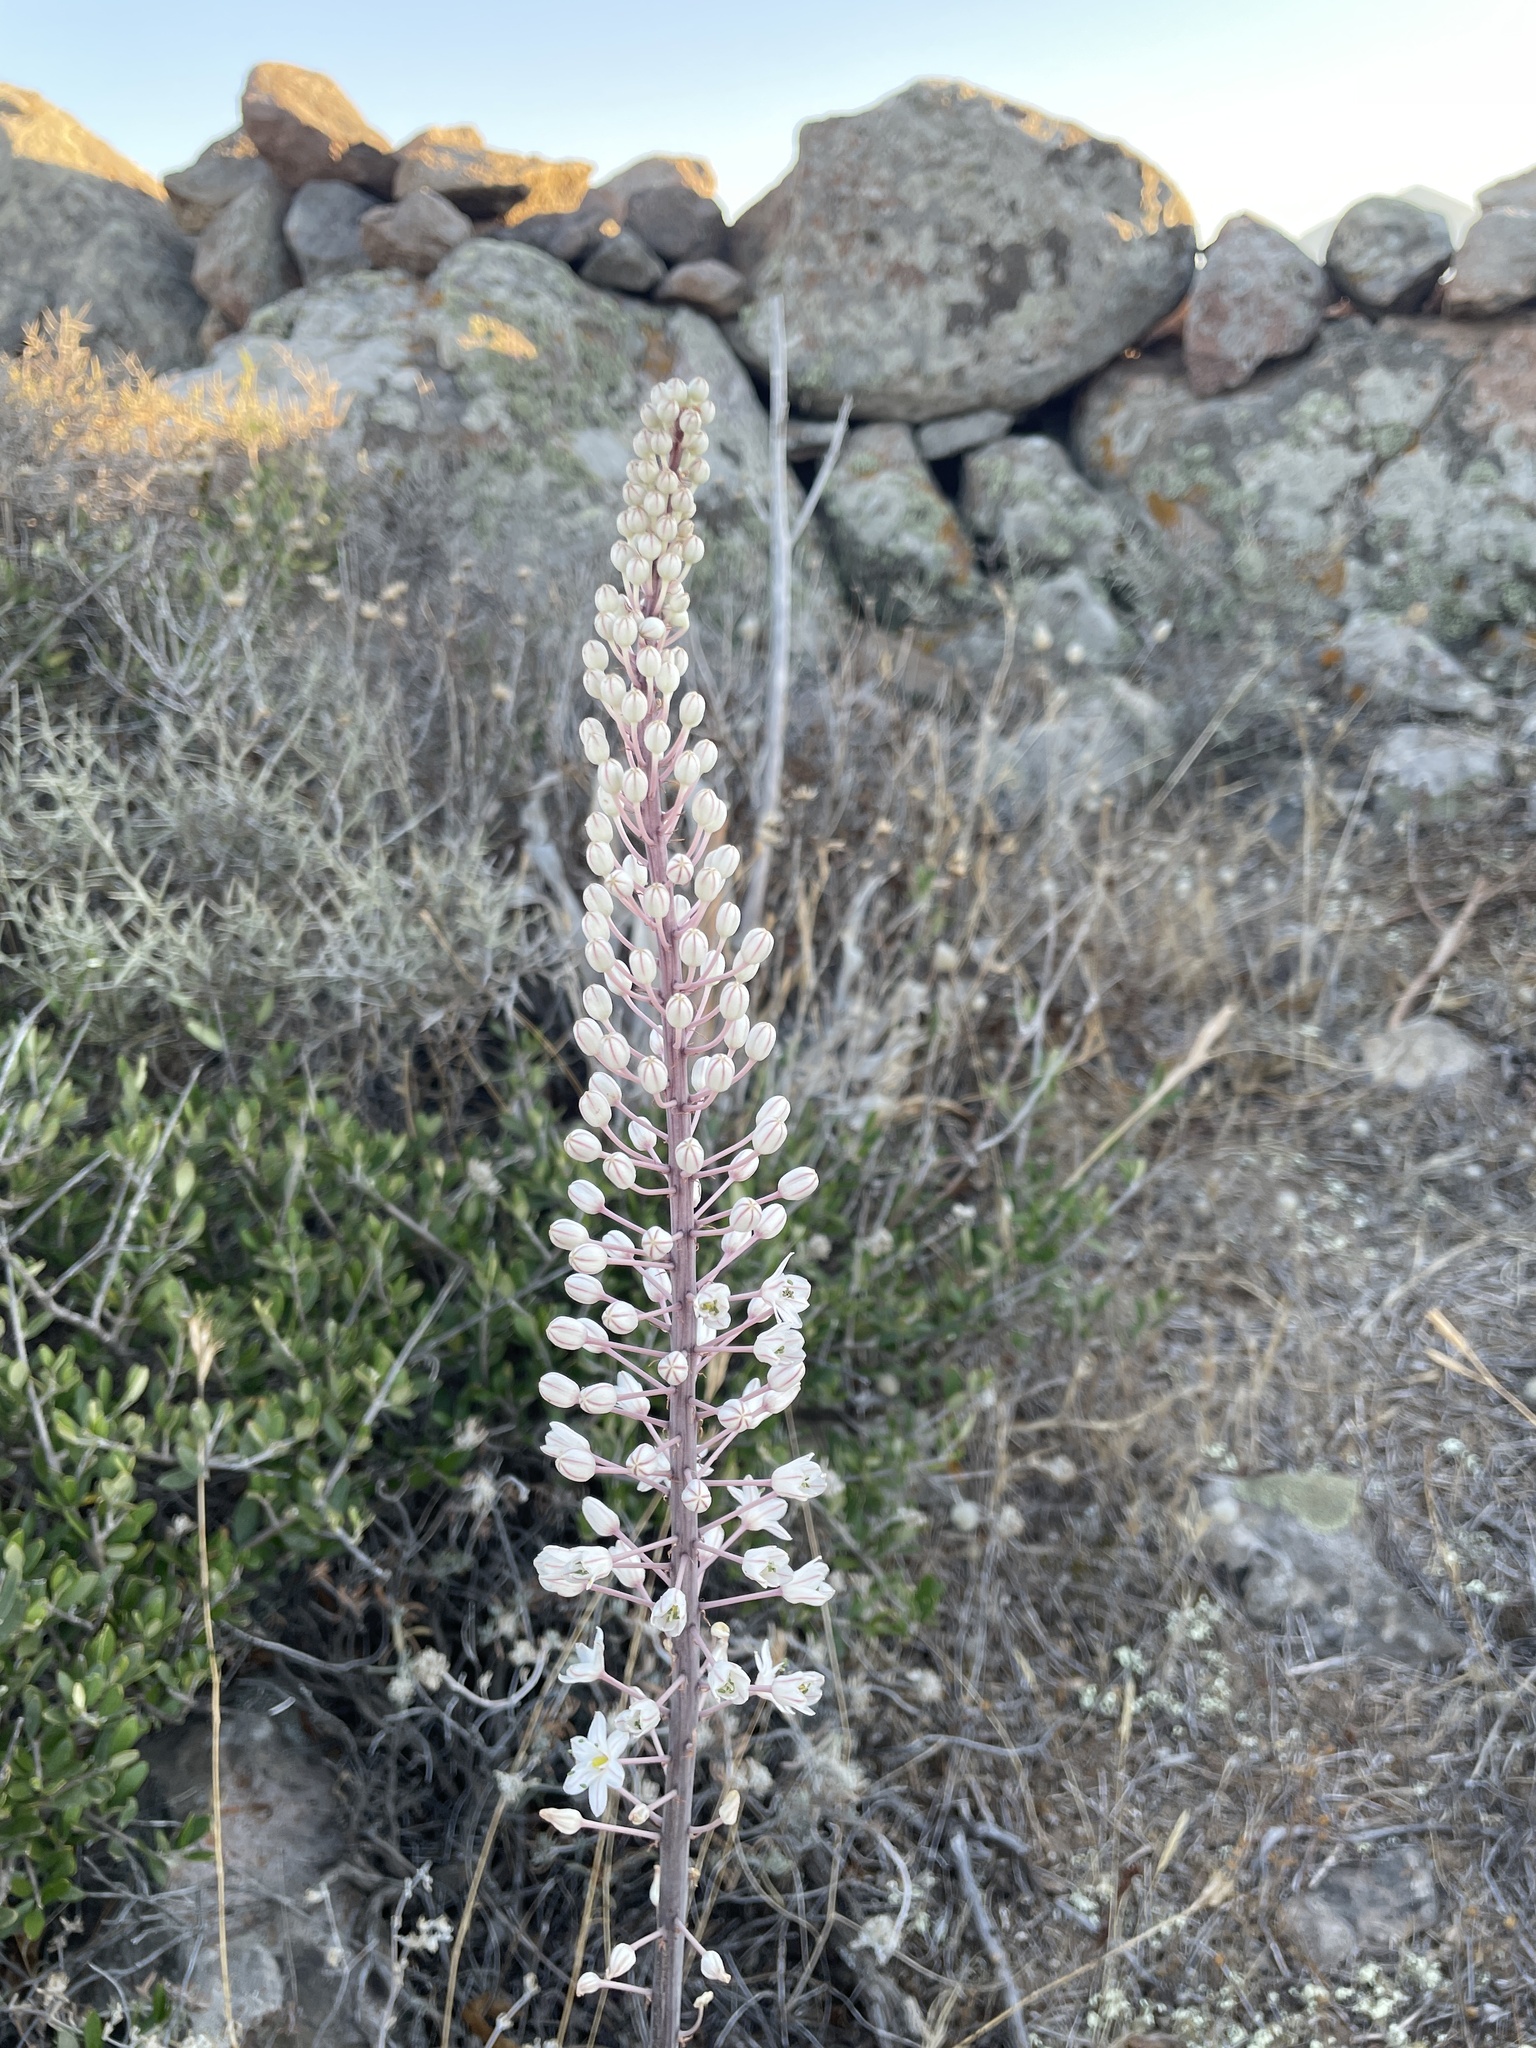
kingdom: Plantae
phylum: Tracheophyta
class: Liliopsida
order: Asparagales
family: Asparagaceae
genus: Drimia
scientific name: Drimia numidica
